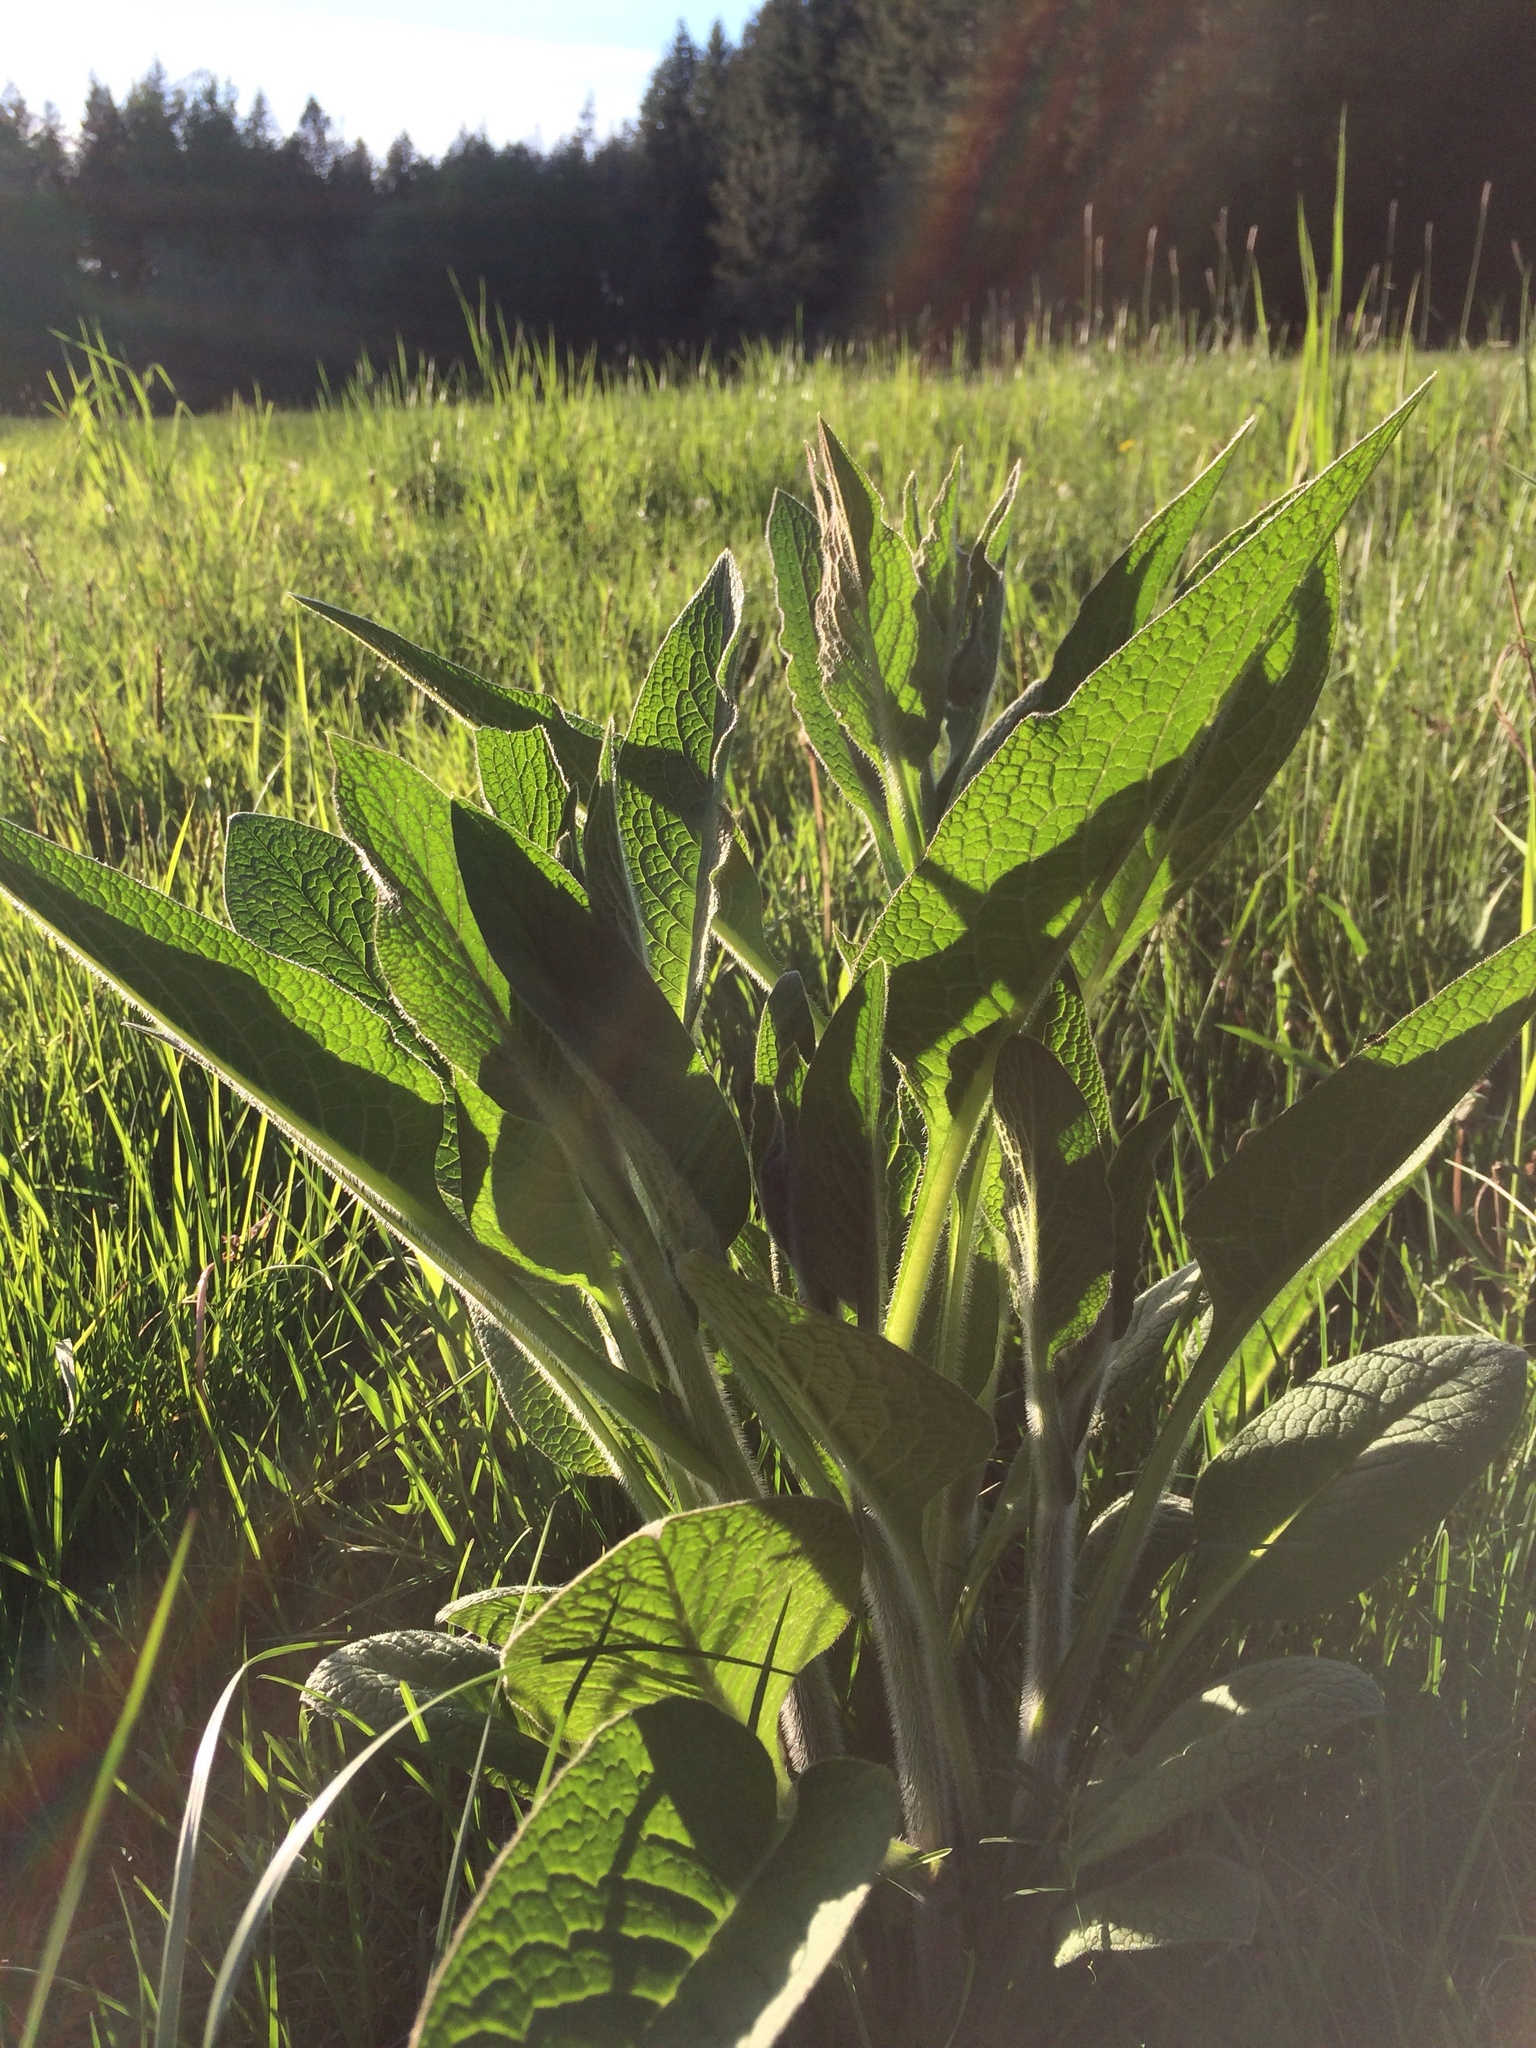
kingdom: Plantae
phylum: Tracheophyta
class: Magnoliopsida
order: Lamiales
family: Plantaginaceae
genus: Digitalis
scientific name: Digitalis purpurea
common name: Foxglove
